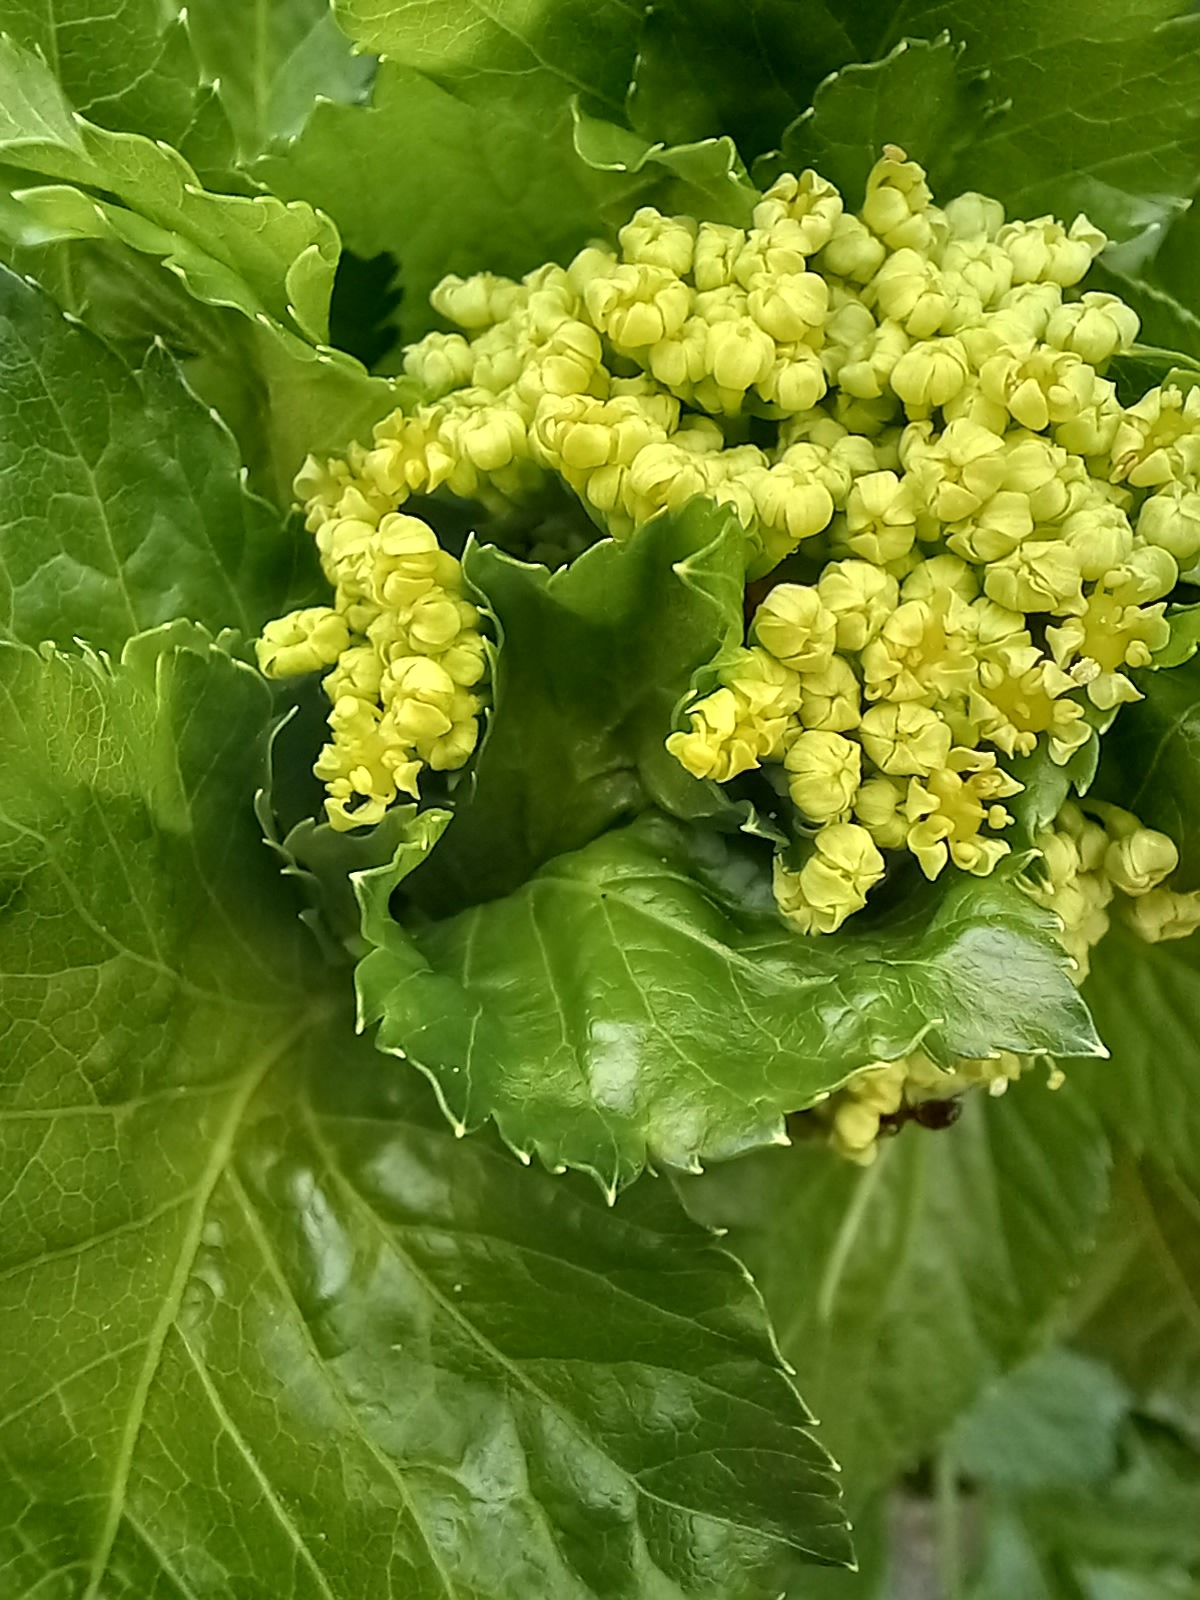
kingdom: Plantae
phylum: Tracheophyta
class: Magnoliopsida
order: Apiales
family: Apiaceae
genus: Smyrnium
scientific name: Smyrnium olusatrum
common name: Alexanders
